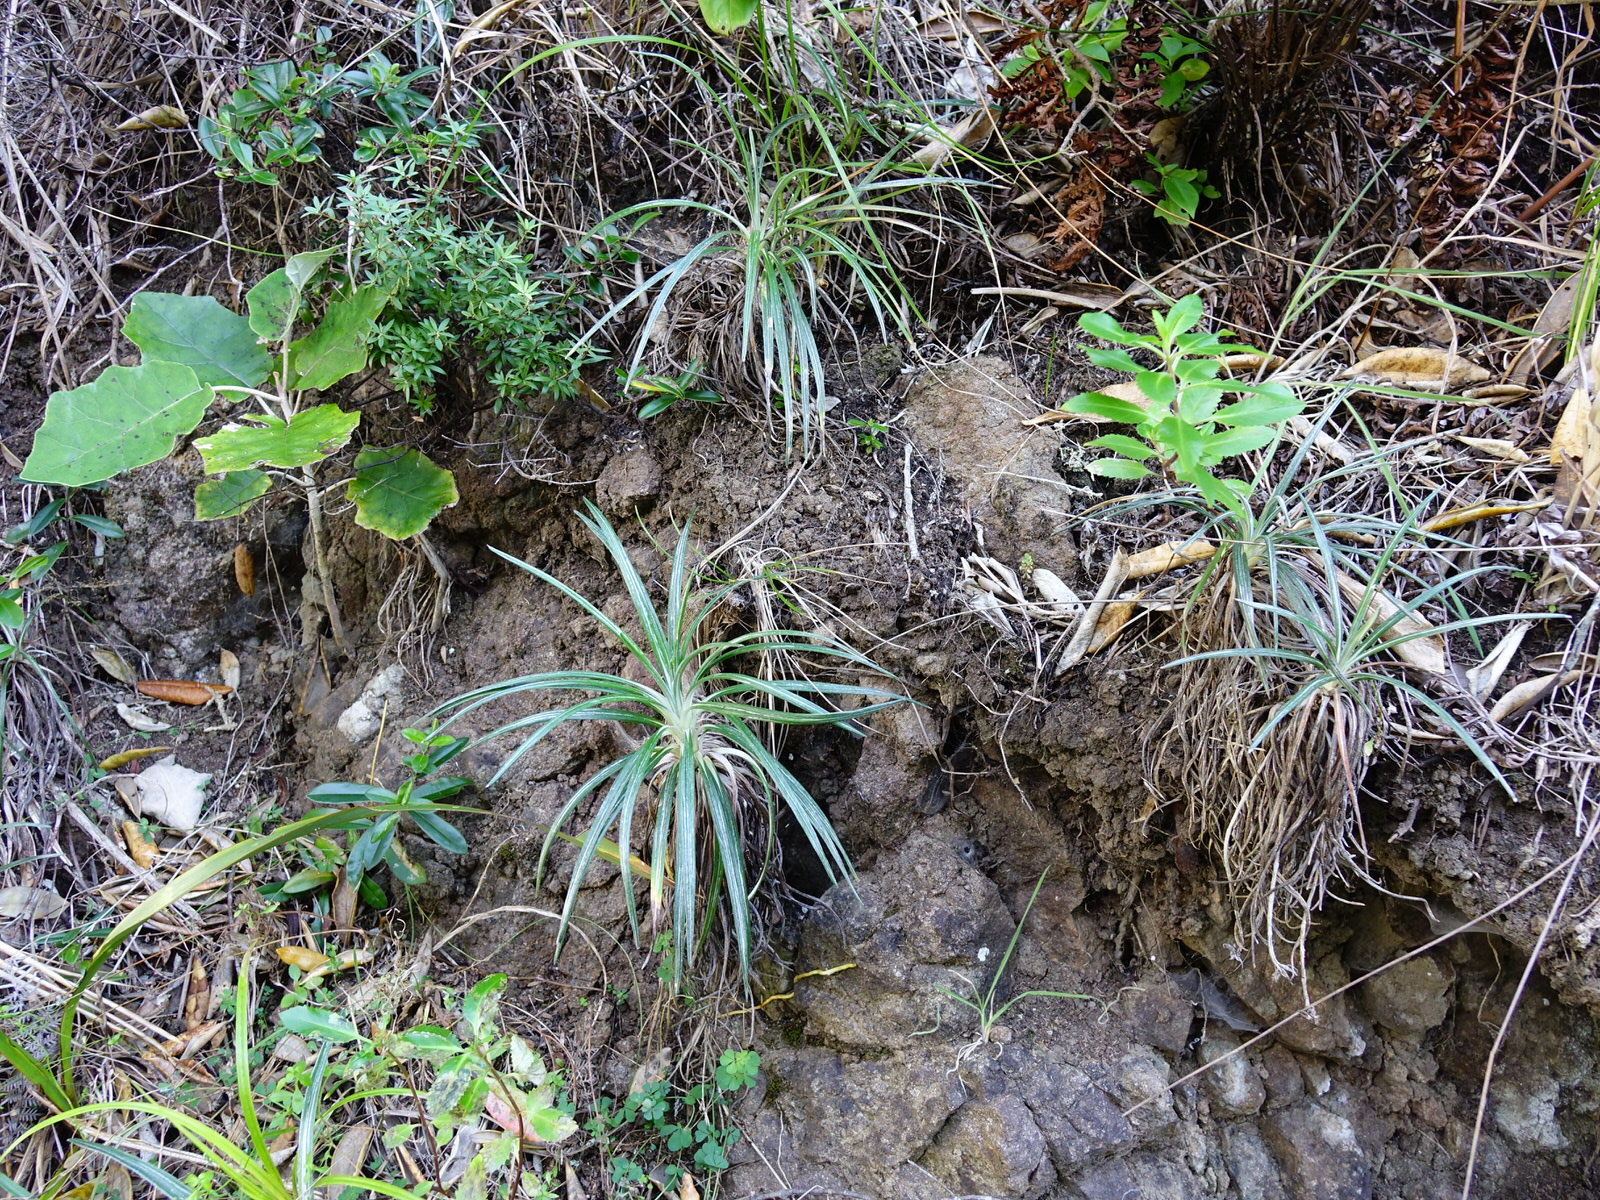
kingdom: Plantae
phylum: Tracheophyta
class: Magnoliopsida
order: Asterales
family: Asteraceae
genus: Celmisia
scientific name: Celmisia major
